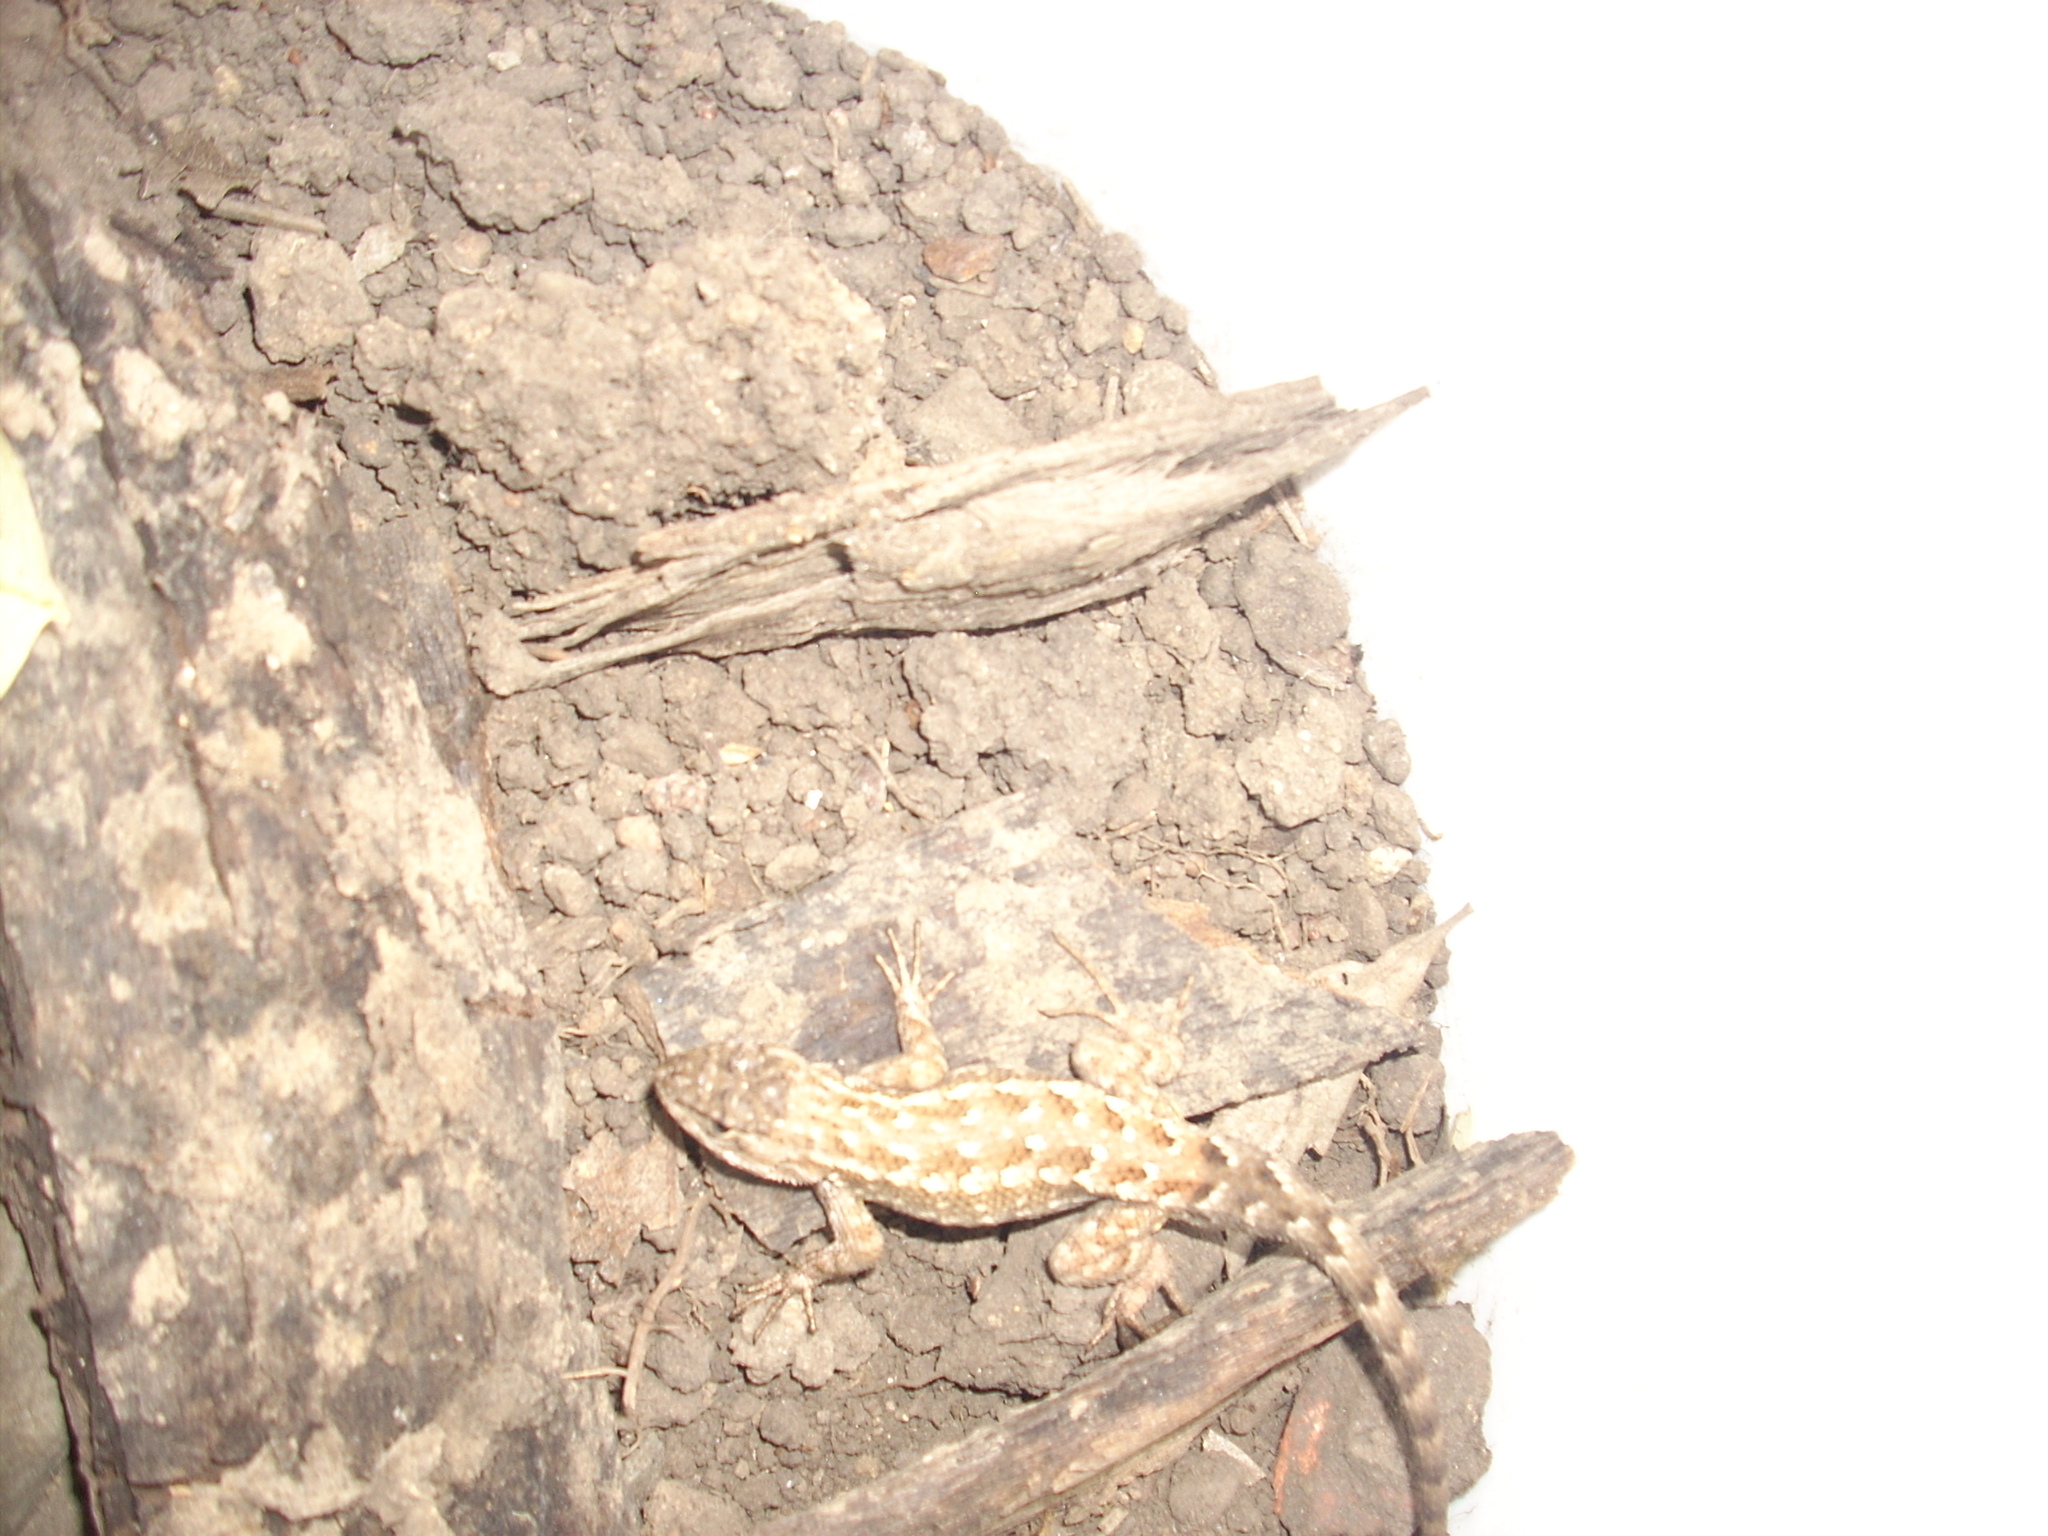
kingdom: Animalia
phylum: Chordata
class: Squamata
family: Phrynosomatidae
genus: Sceloporus
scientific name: Sceloporus occidentalis
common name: Western fence lizard
